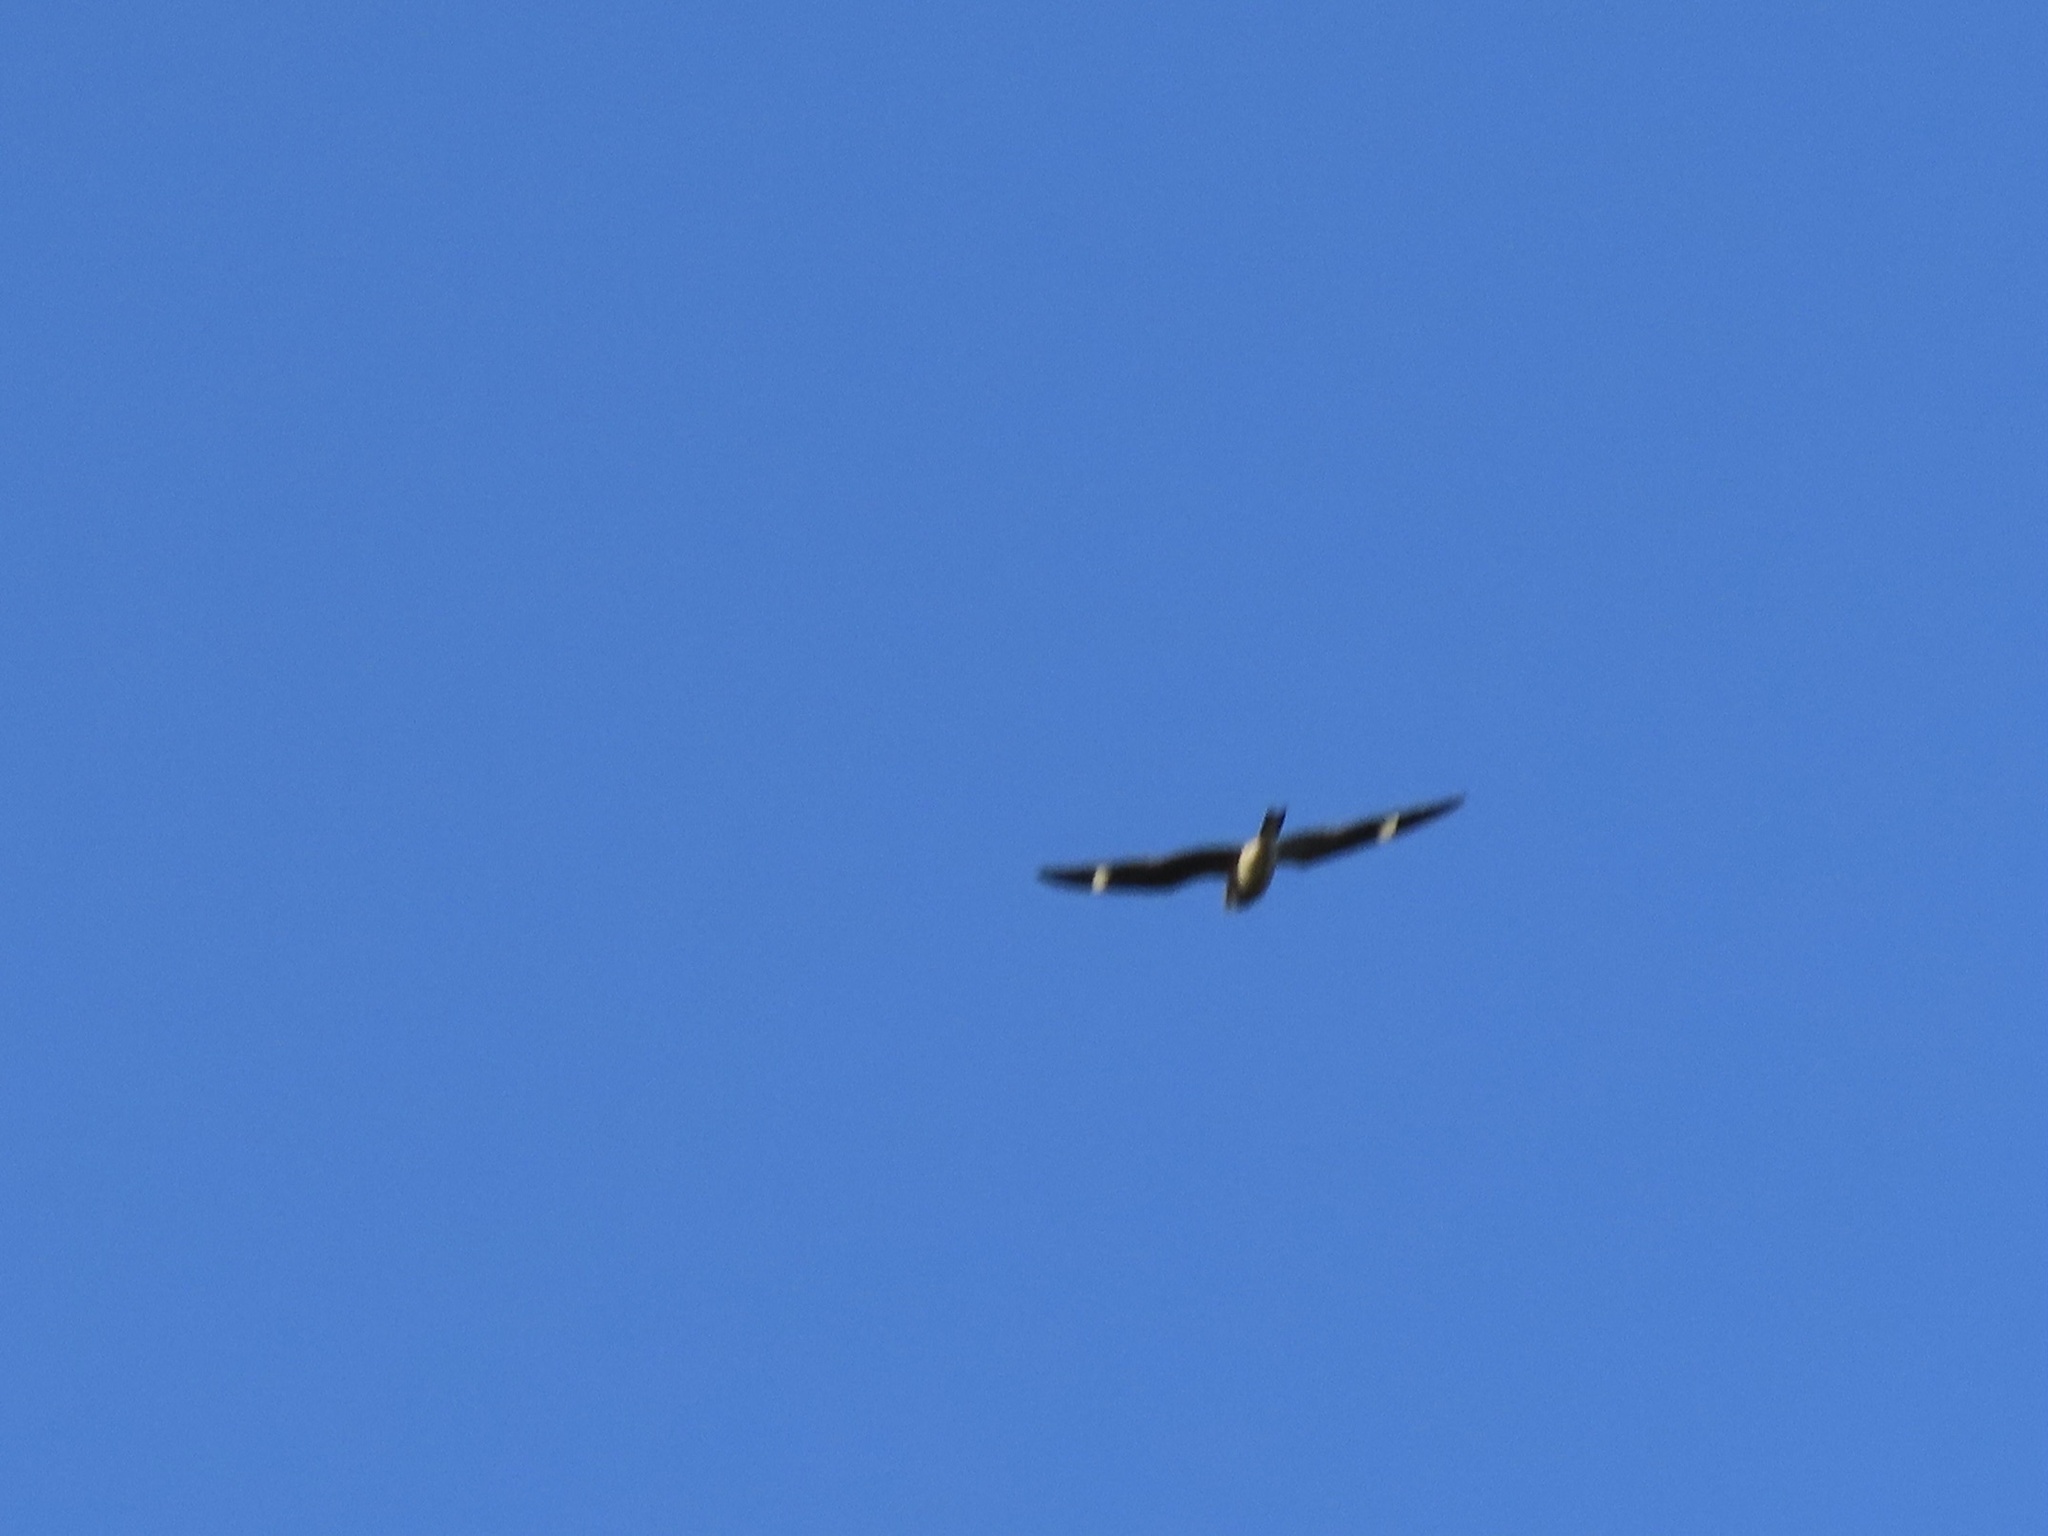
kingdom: Animalia
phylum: Chordata
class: Aves
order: Caprimulgiformes
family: Caprimulgidae
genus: Chordeiles
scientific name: Chordeiles minor
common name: Common nighthawk
